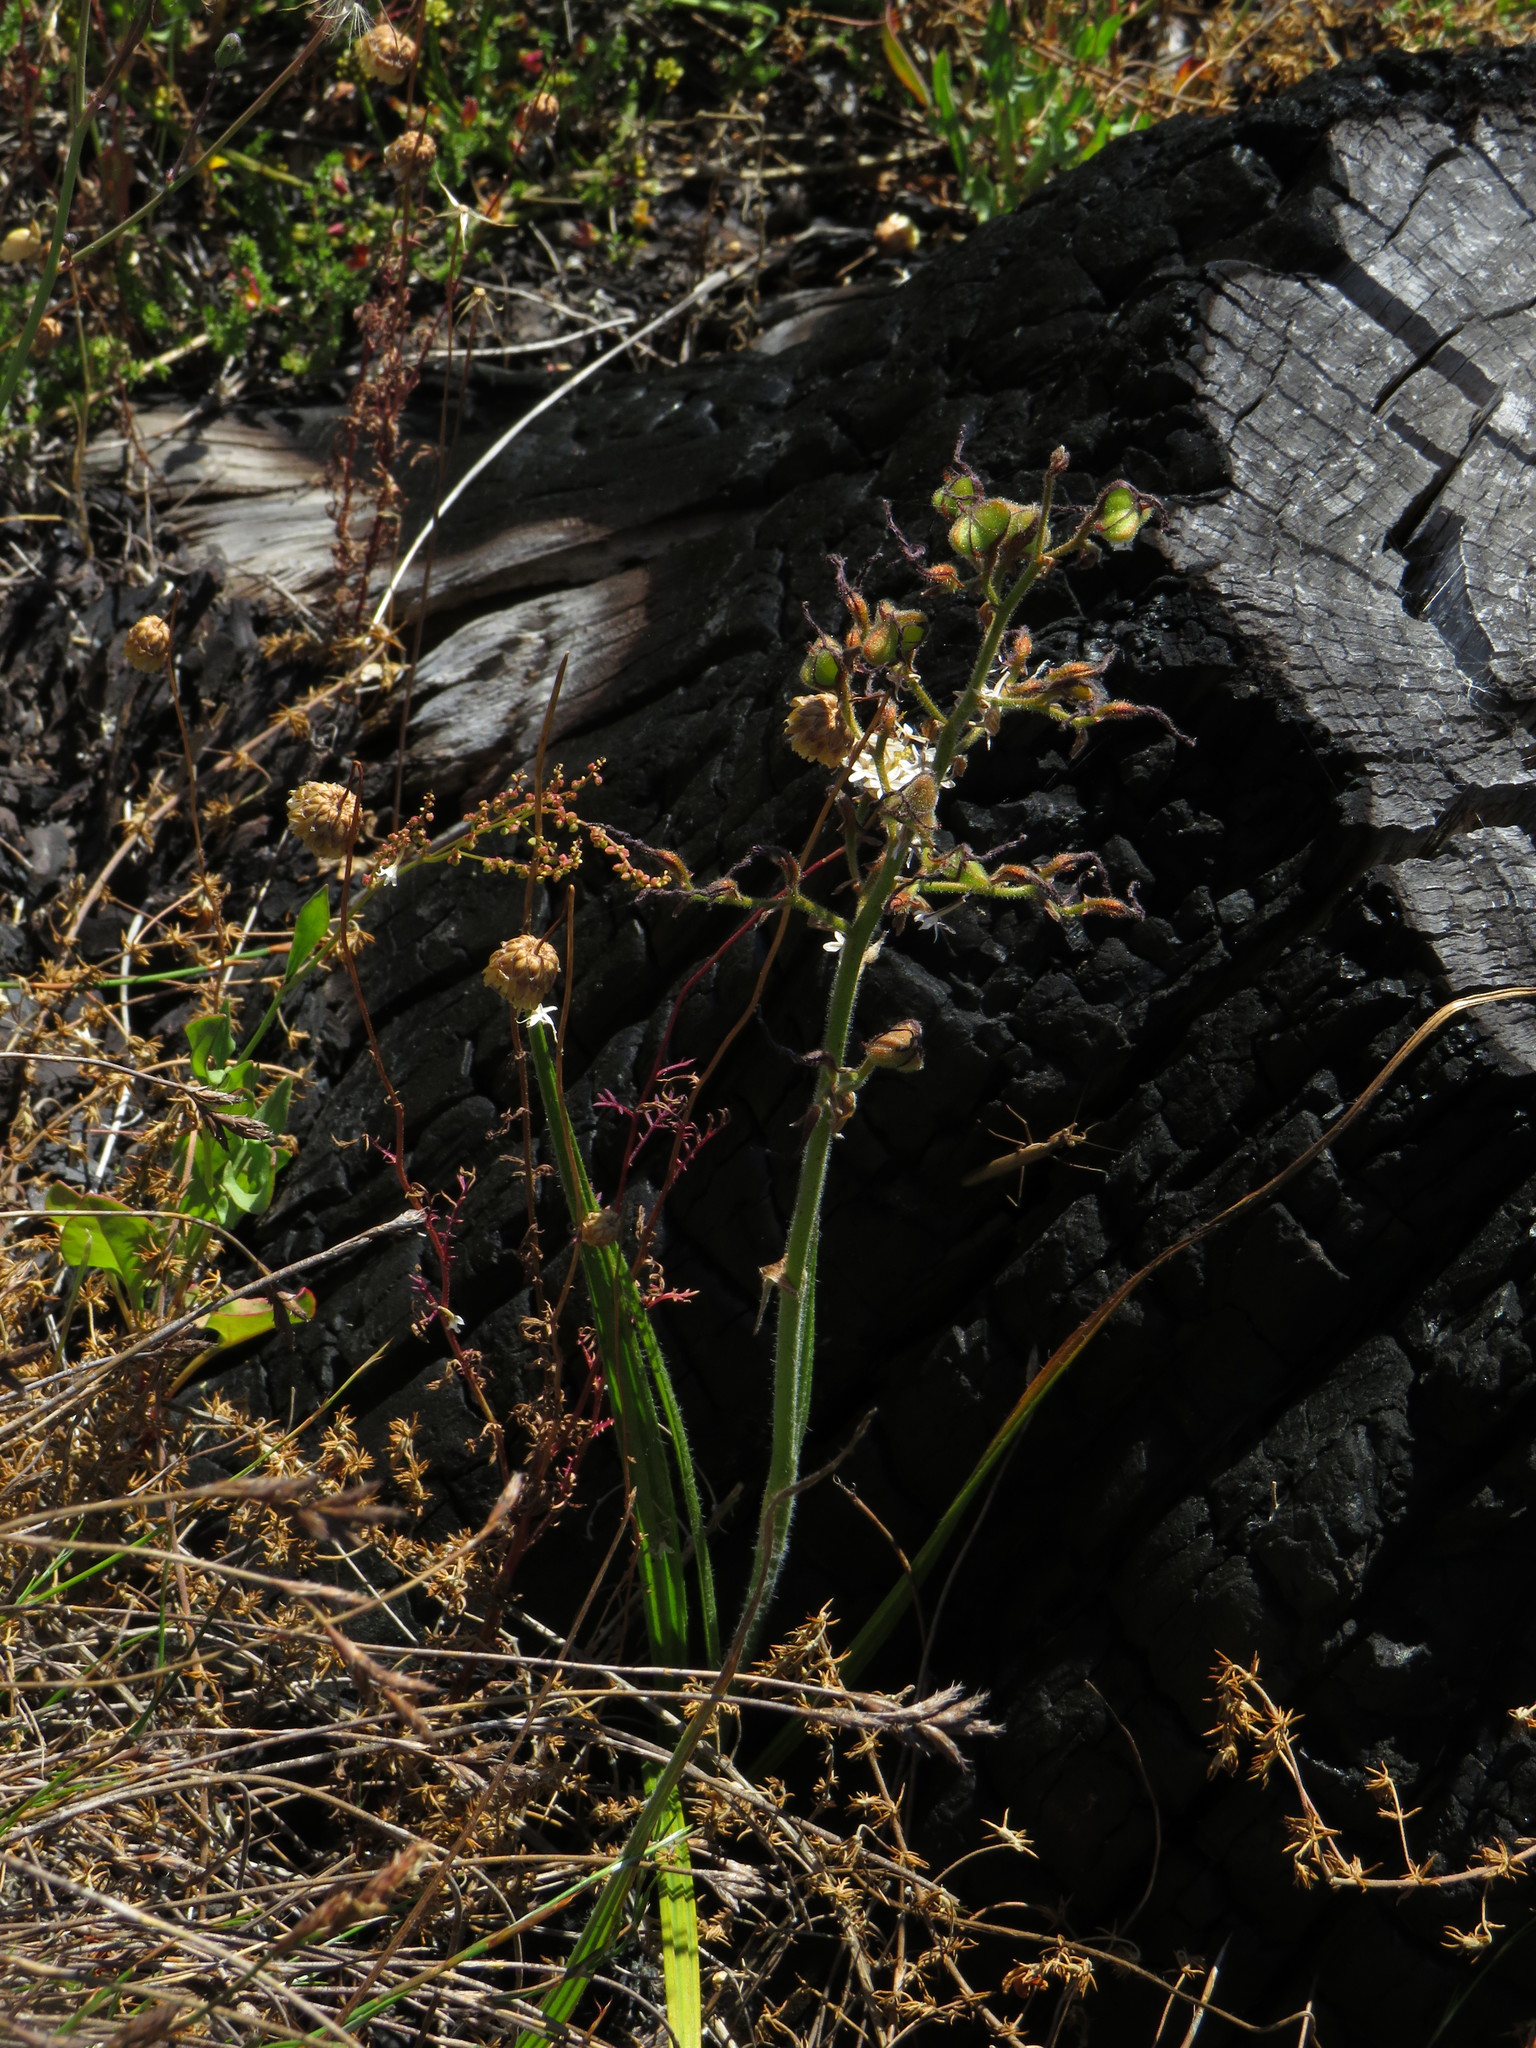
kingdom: Plantae
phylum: Tracheophyta
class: Liliopsida
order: Commelinales
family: Haemodoraceae
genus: Wachendorfia
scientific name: Wachendorfia paniculata
